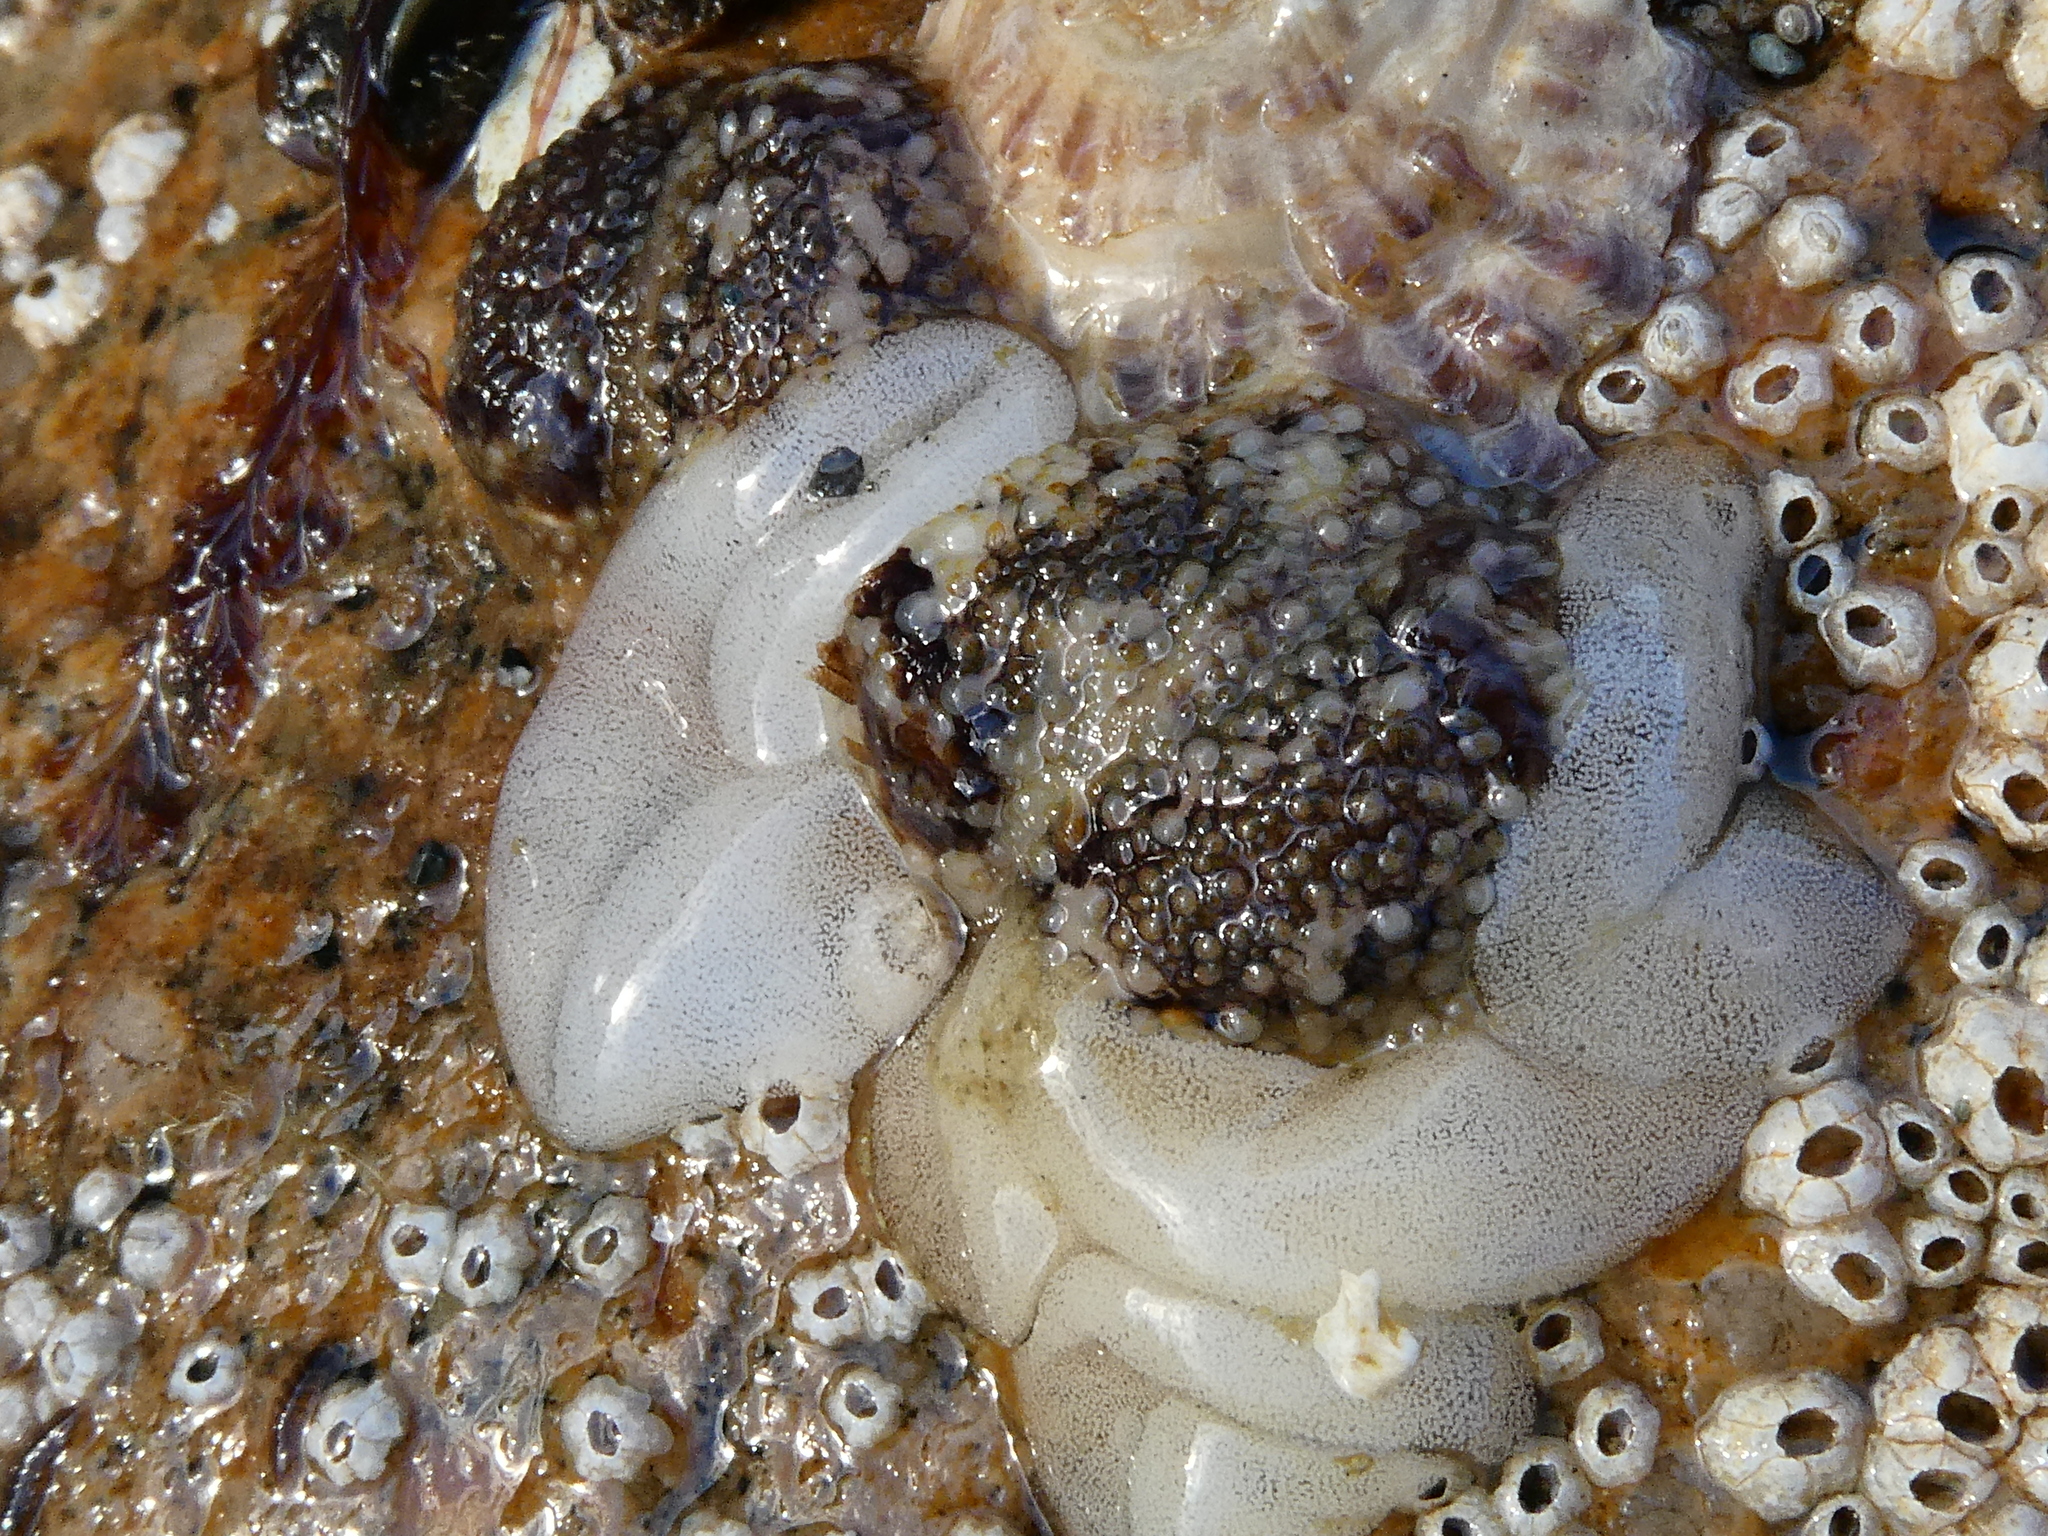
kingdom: Animalia
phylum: Mollusca
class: Gastropoda
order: Nudibranchia
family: Onchidorididae
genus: Onchidoris
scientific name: Onchidoris bilamellata
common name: Barnacle-eating onchidoris
